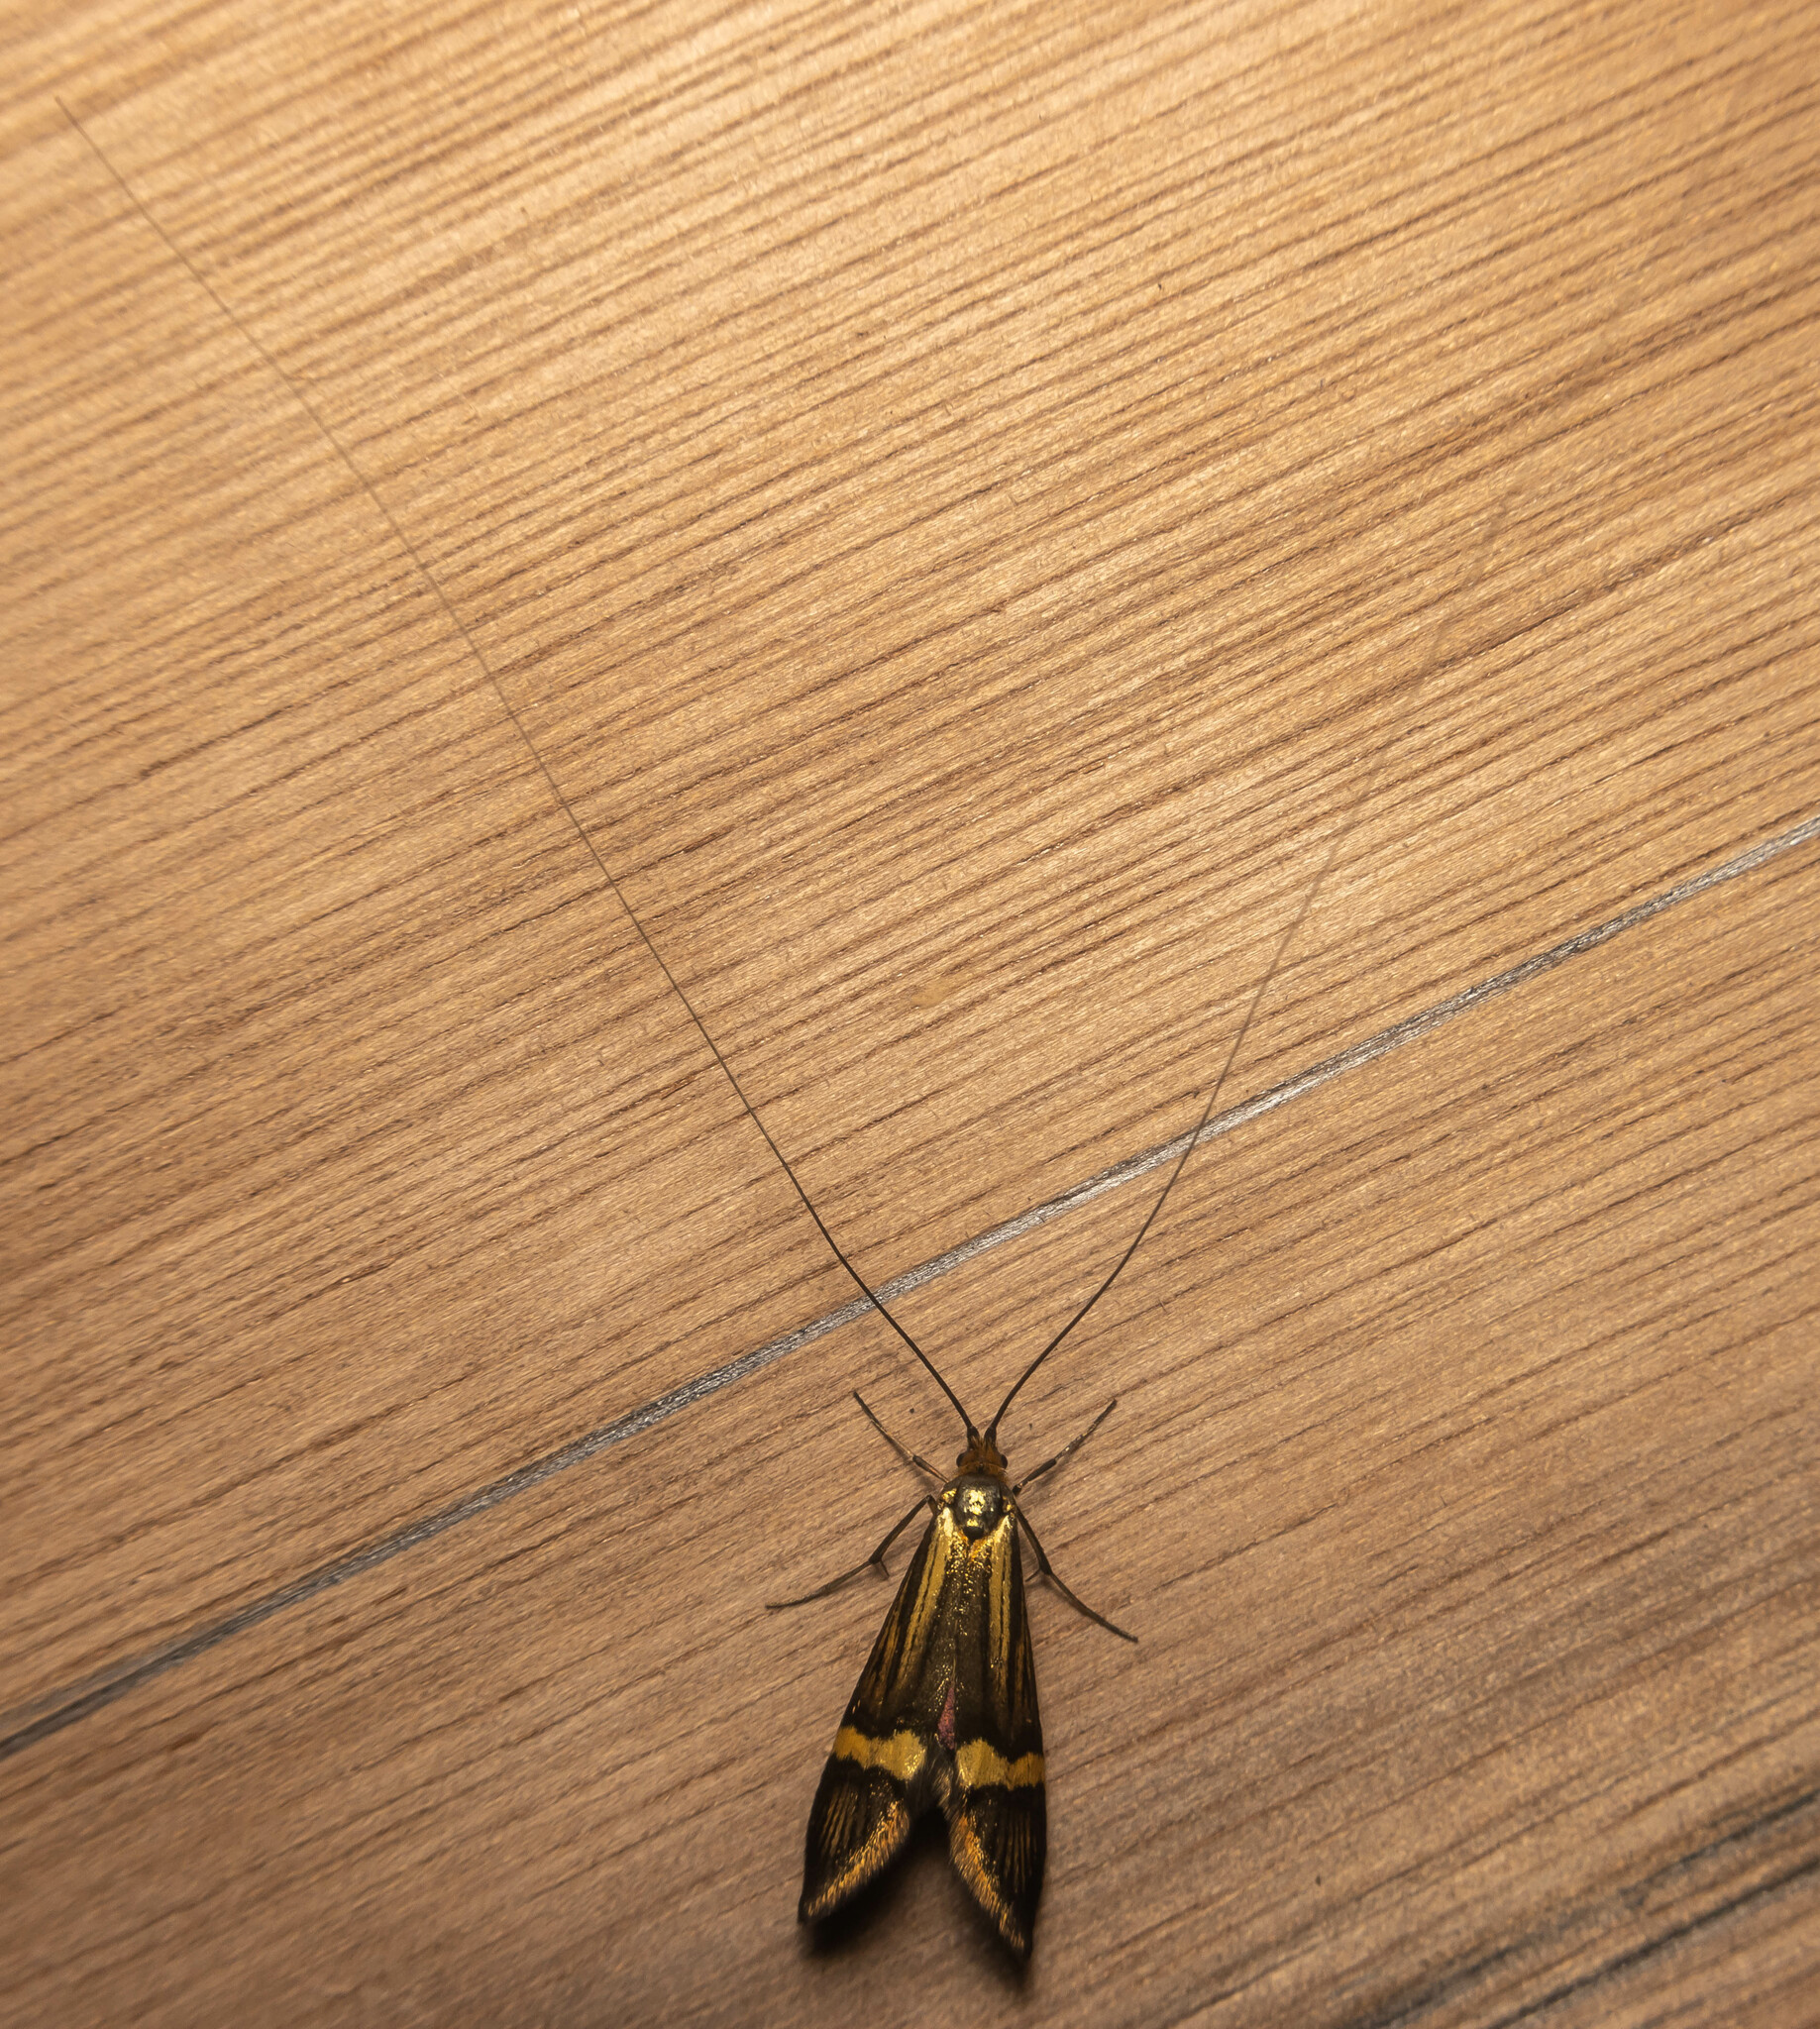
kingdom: Animalia
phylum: Arthropoda
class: Insecta
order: Lepidoptera
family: Adelidae
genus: Nemophora
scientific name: Nemophora degeerella
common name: Yellow-barred long-horn
